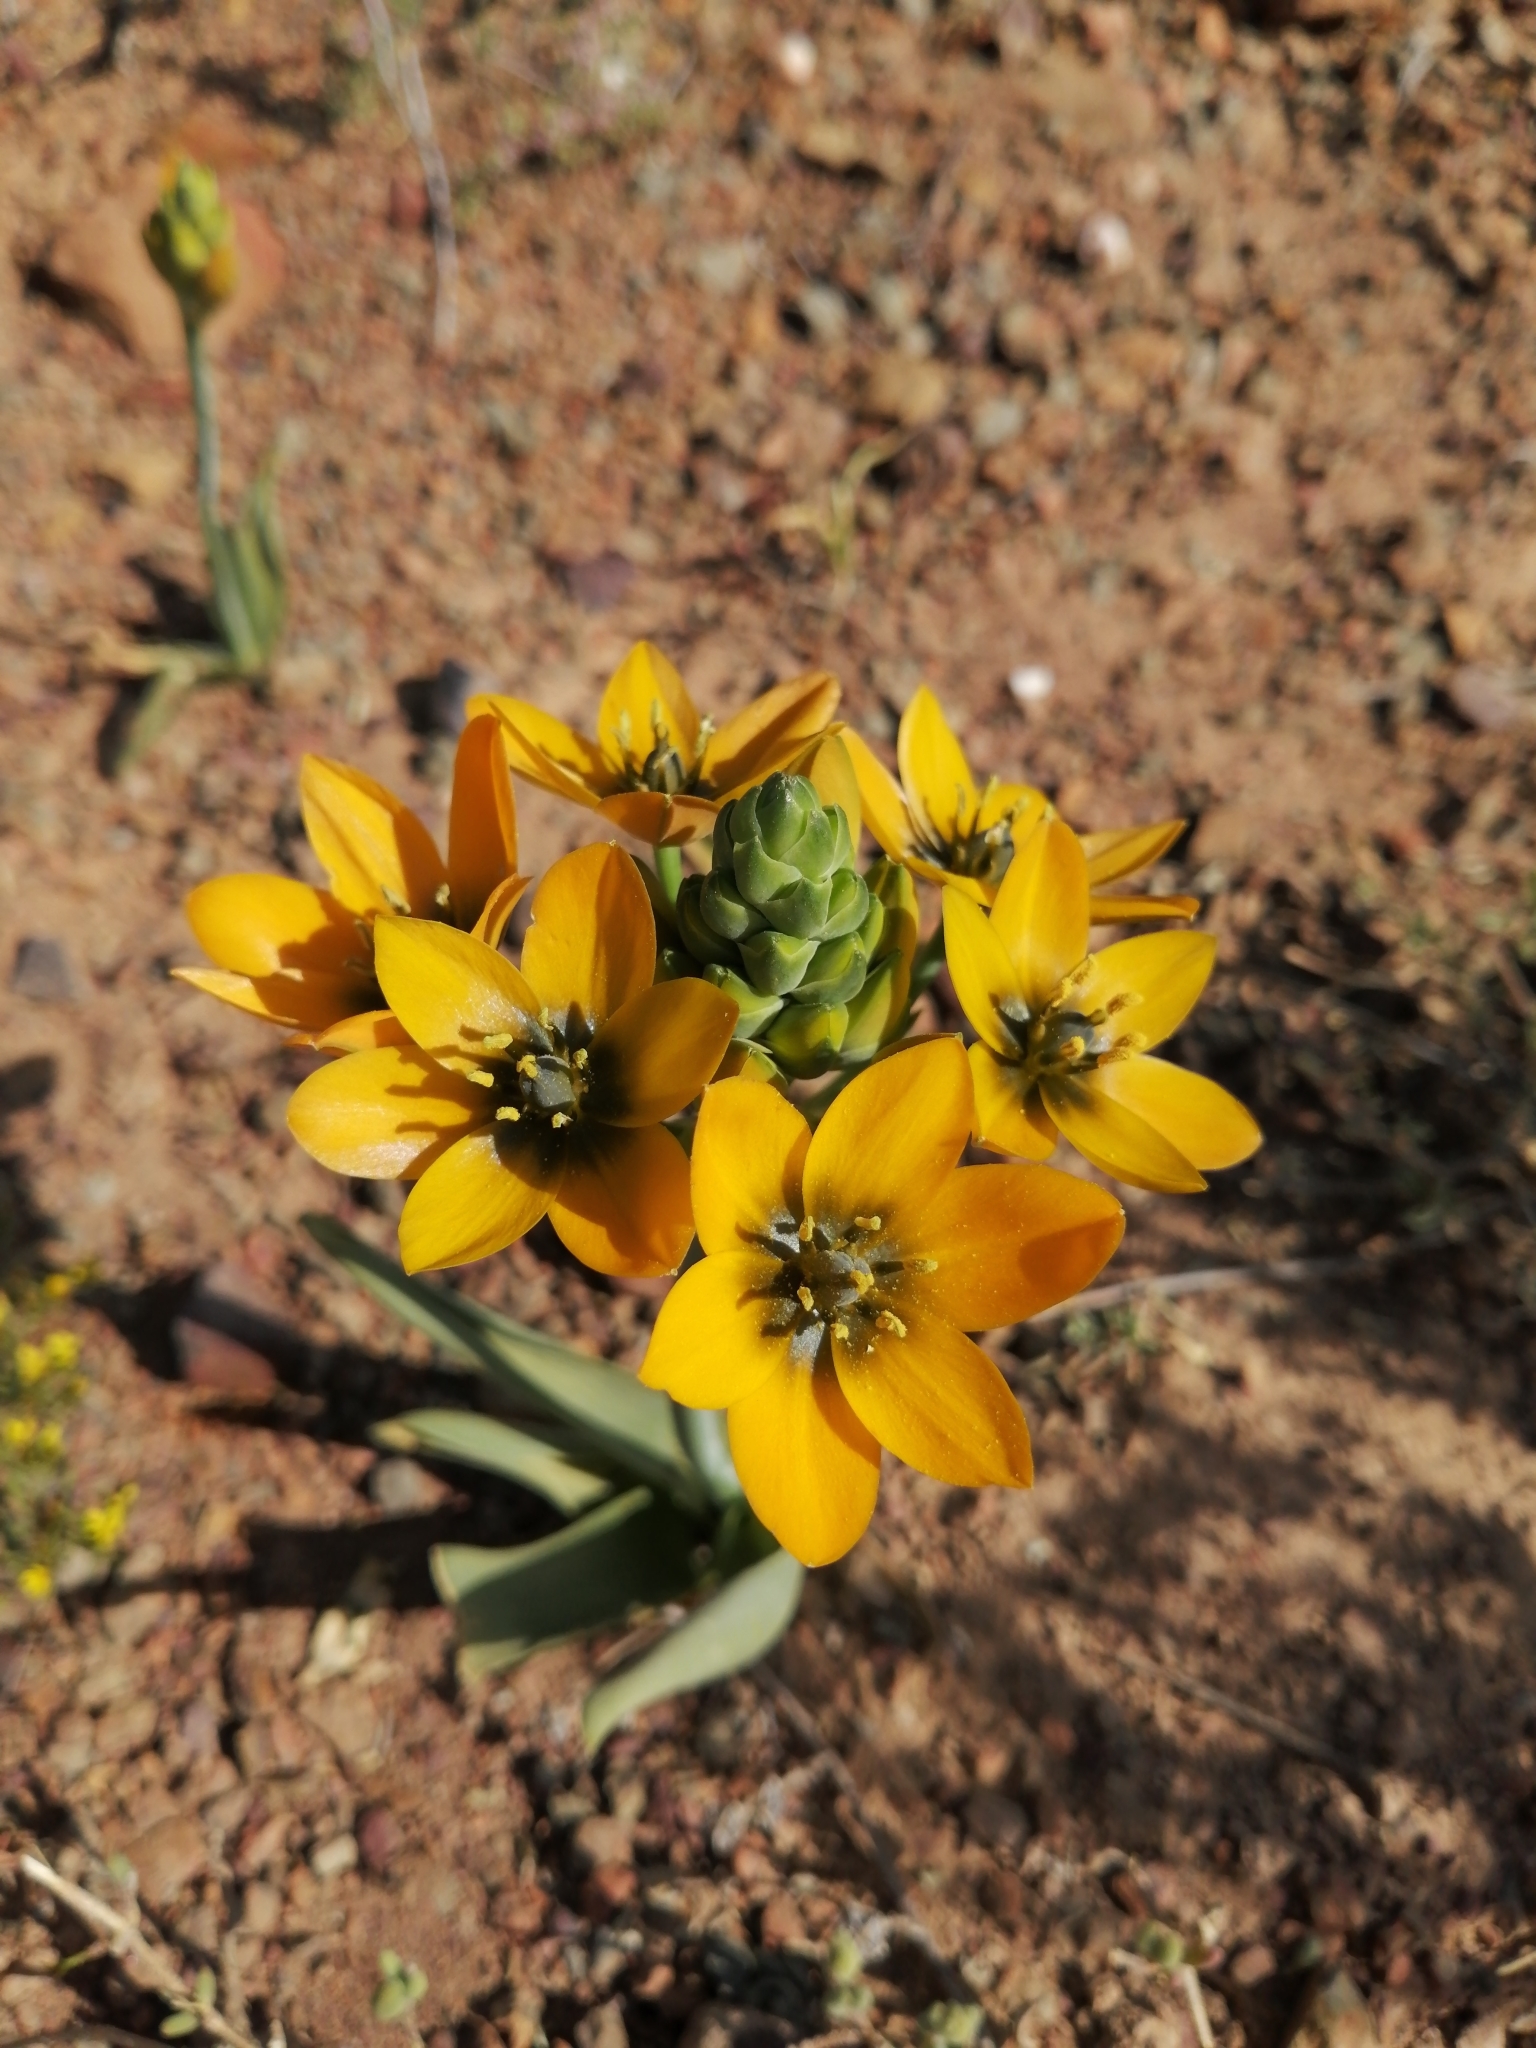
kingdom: Plantae
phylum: Tracheophyta
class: Liliopsida
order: Asparagales
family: Asparagaceae
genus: Ornithogalum
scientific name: Ornithogalum dubium
